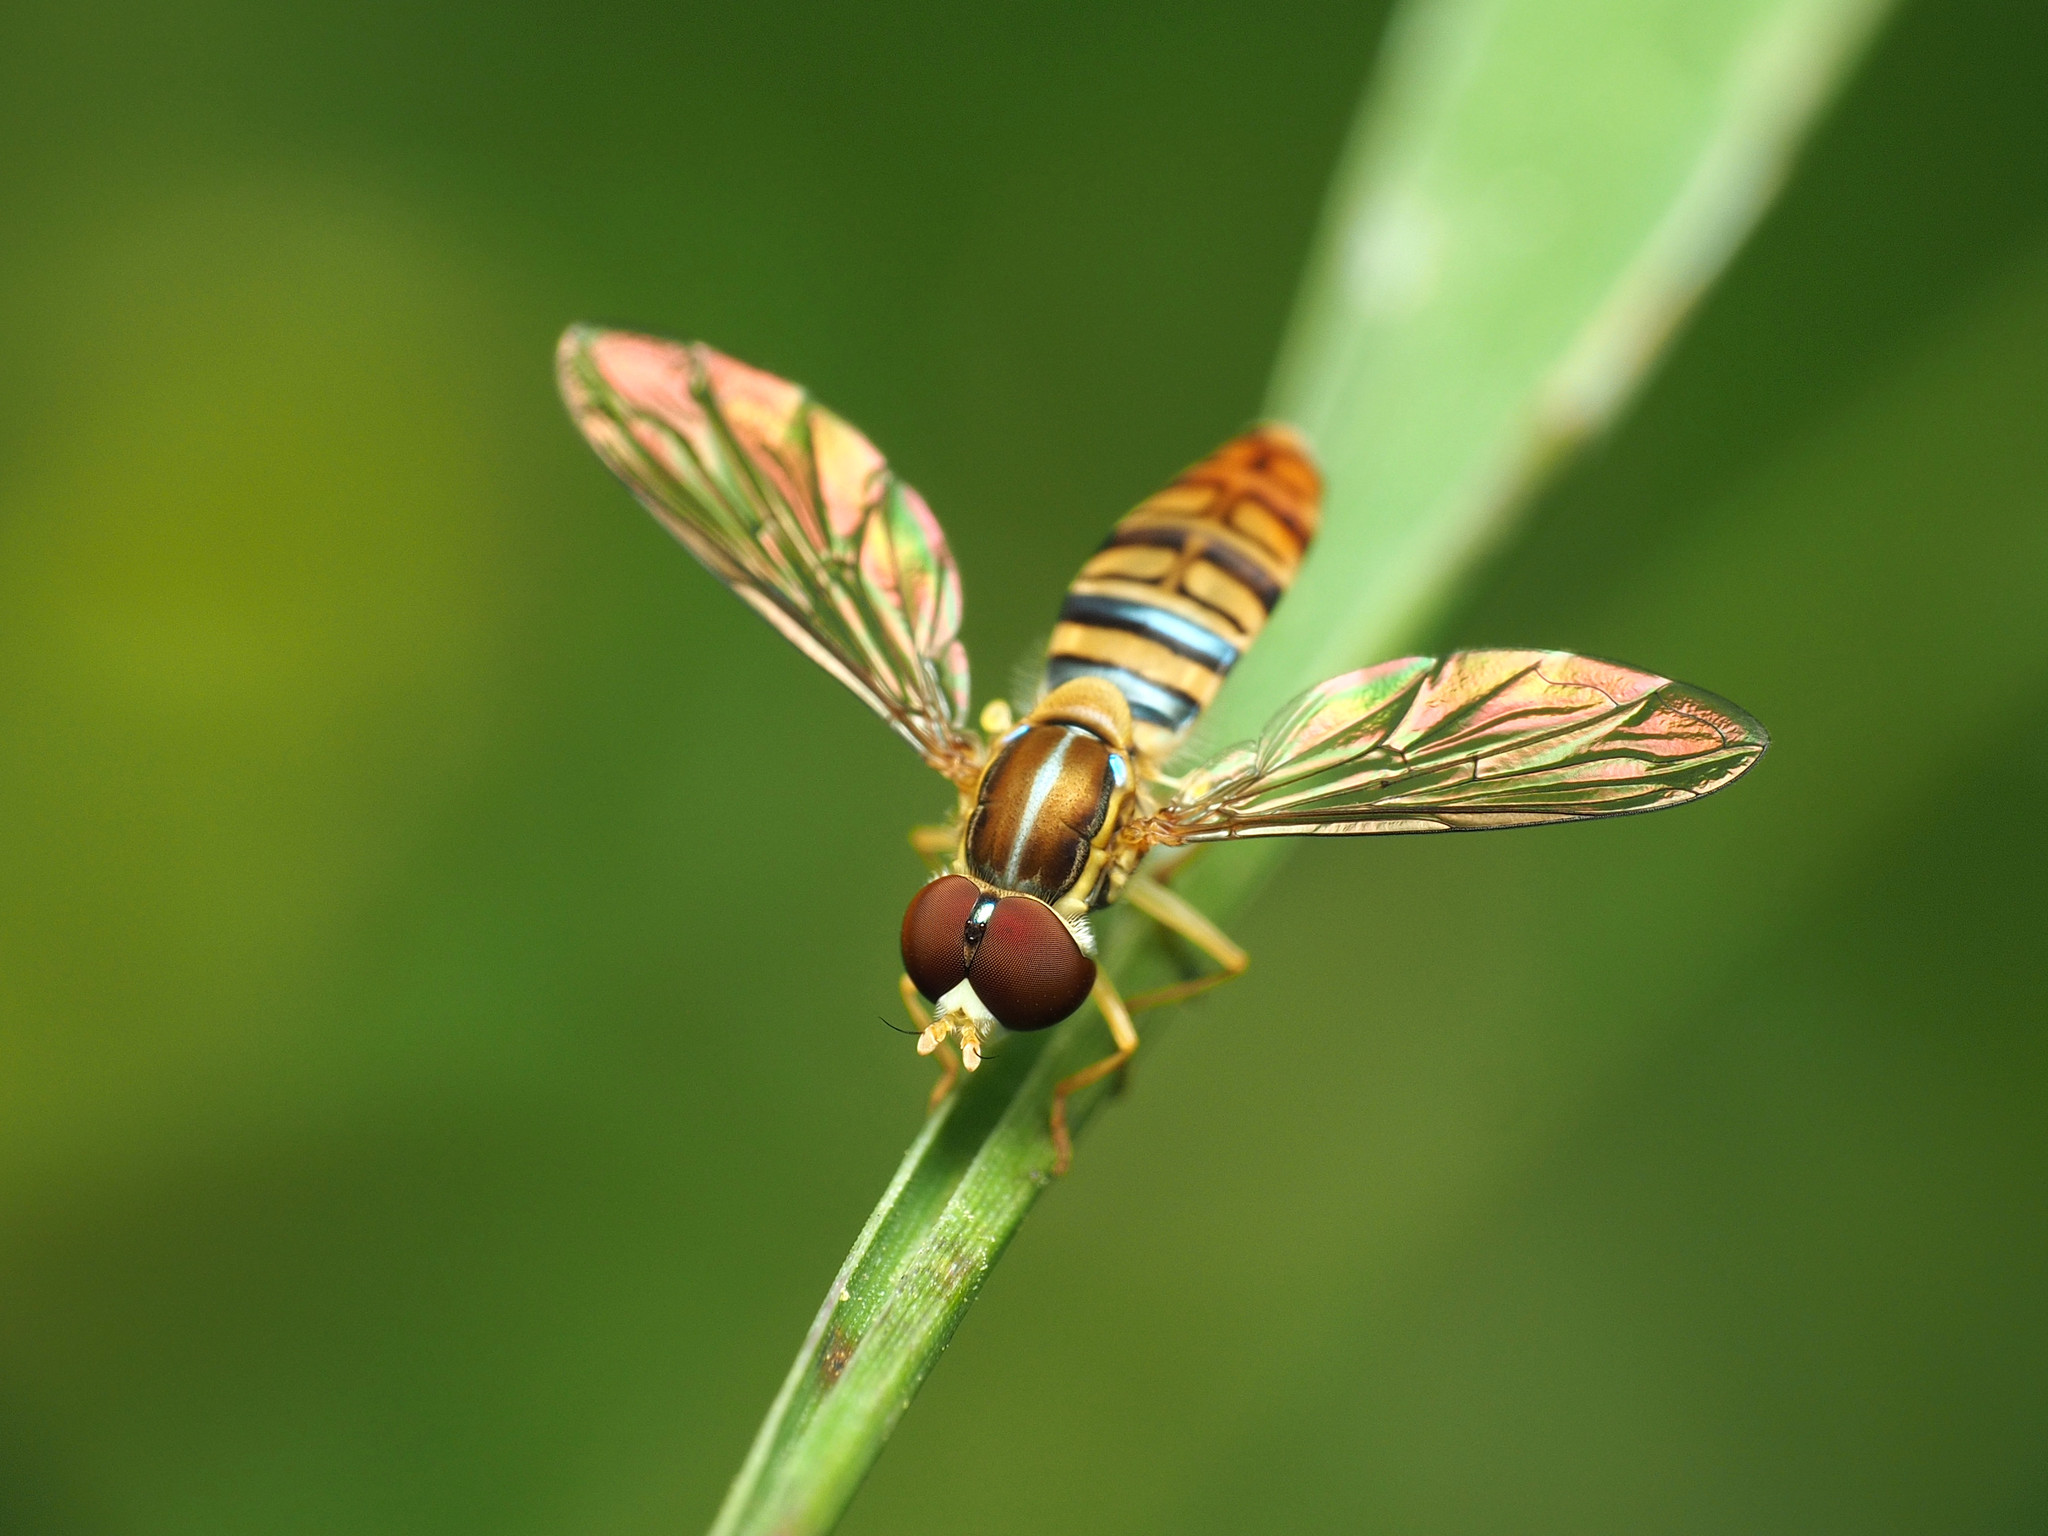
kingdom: Animalia
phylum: Arthropoda
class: Insecta
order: Diptera
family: Syrphidae
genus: Toxomerus
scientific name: Toxomerus politus
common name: Maize calligrapher
